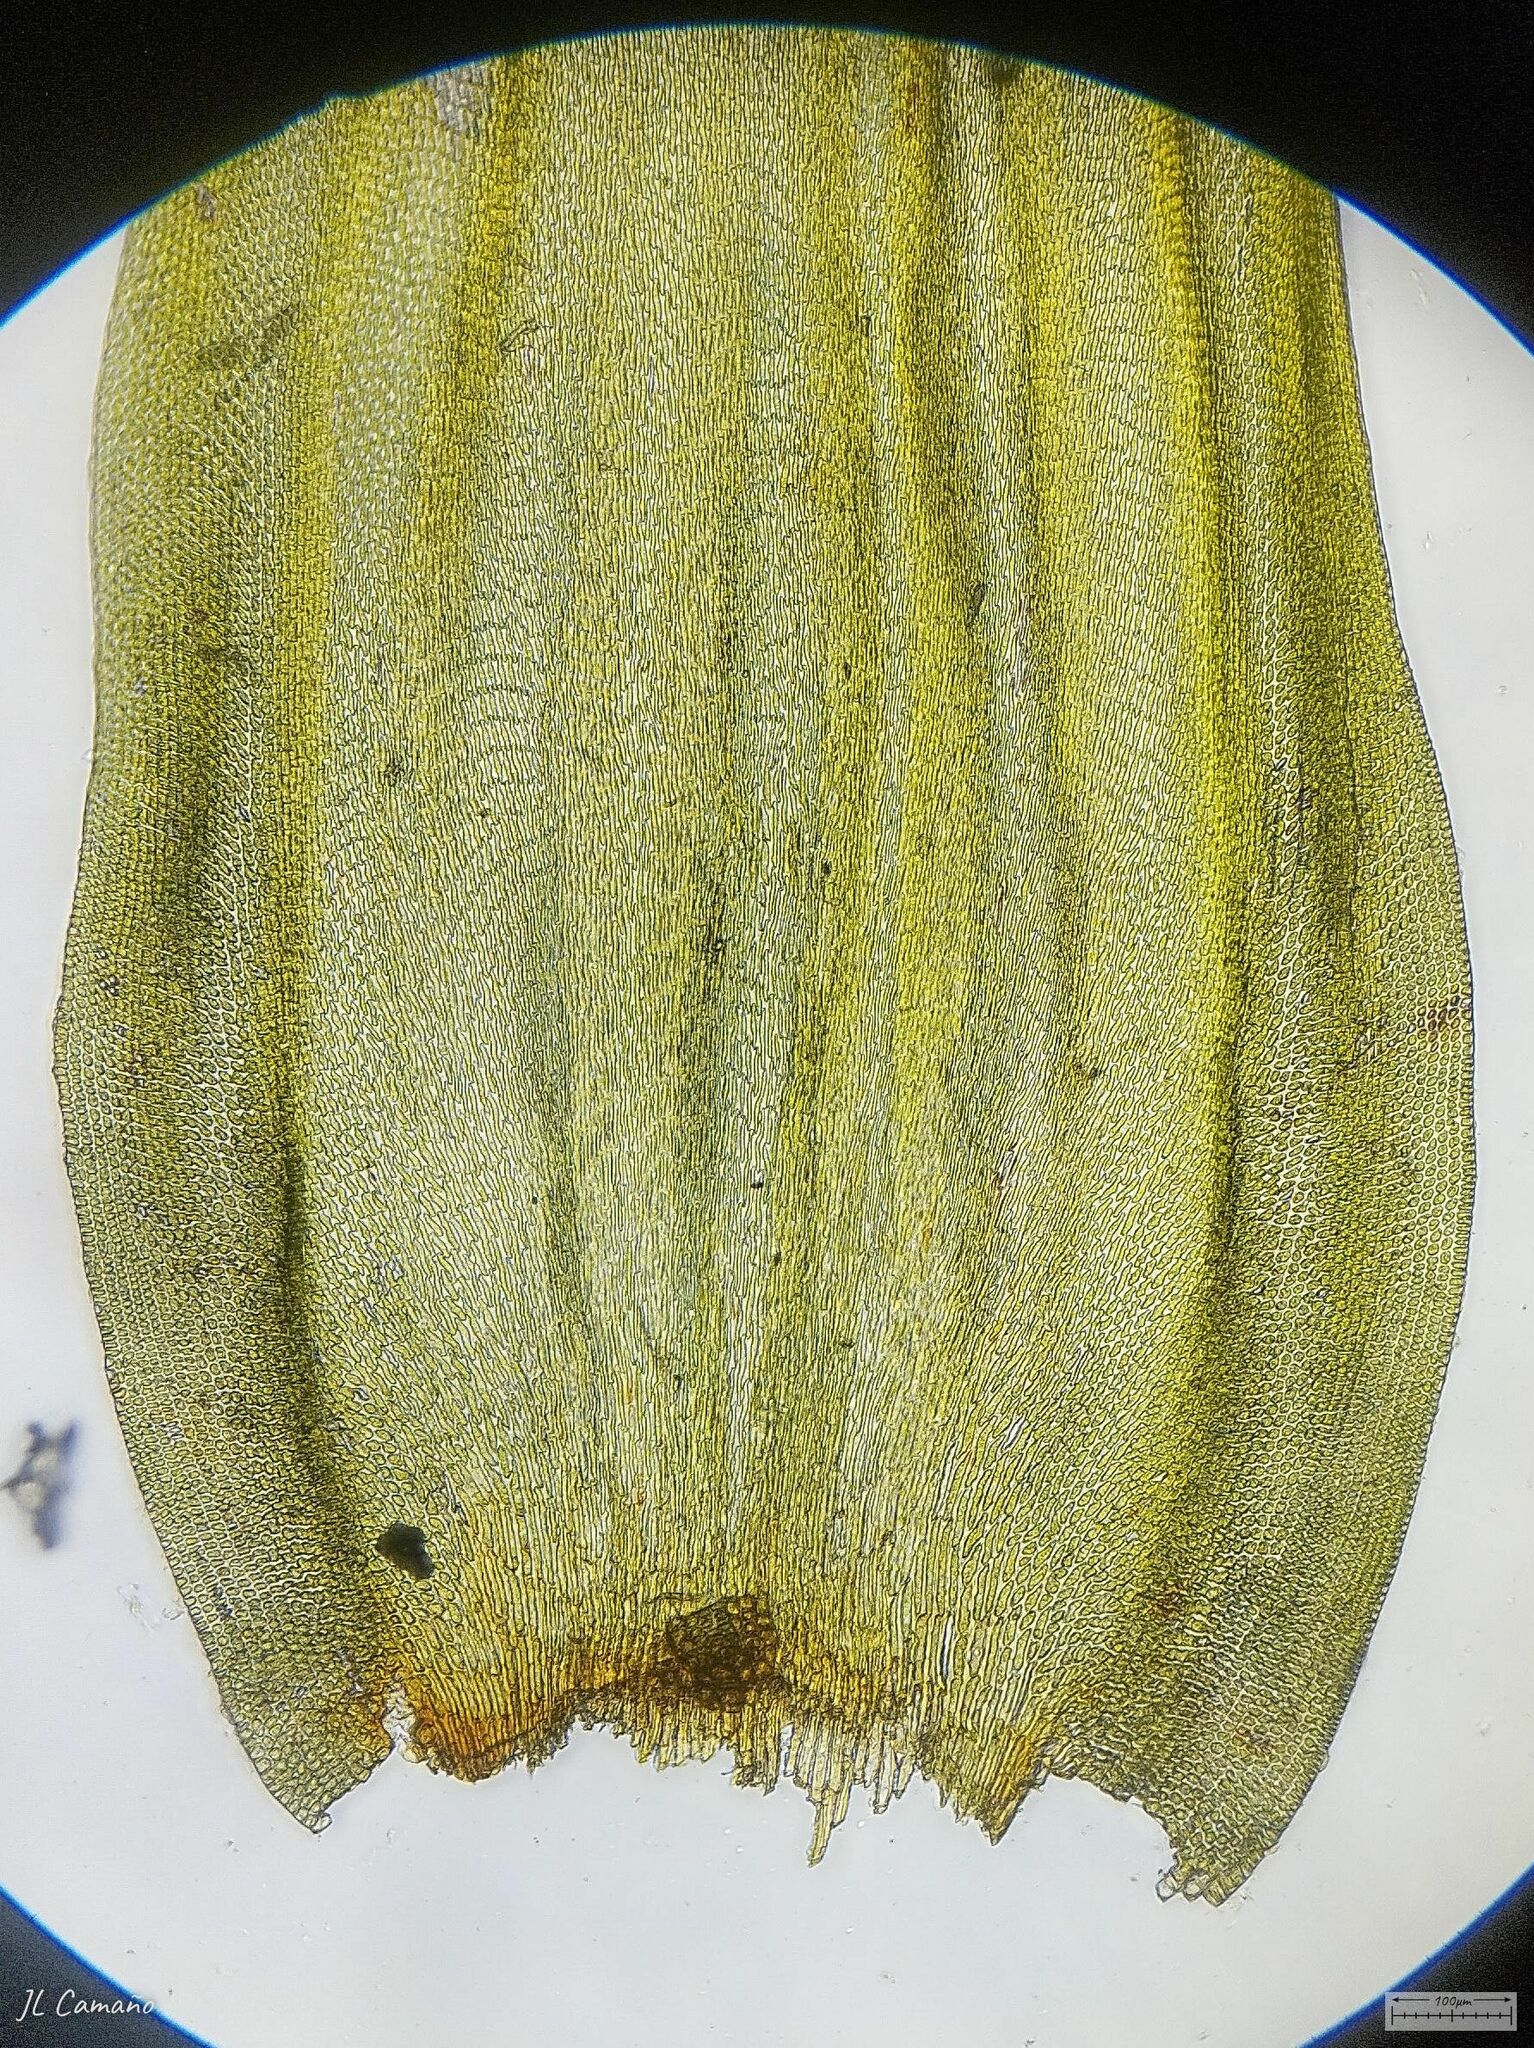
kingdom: Plantae
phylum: Bryophyta
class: Bryopsida
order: Hypnales
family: Leucodontaceae
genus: Leucodon
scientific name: Leucodon sciuroides
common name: Squirrel-tail moss
